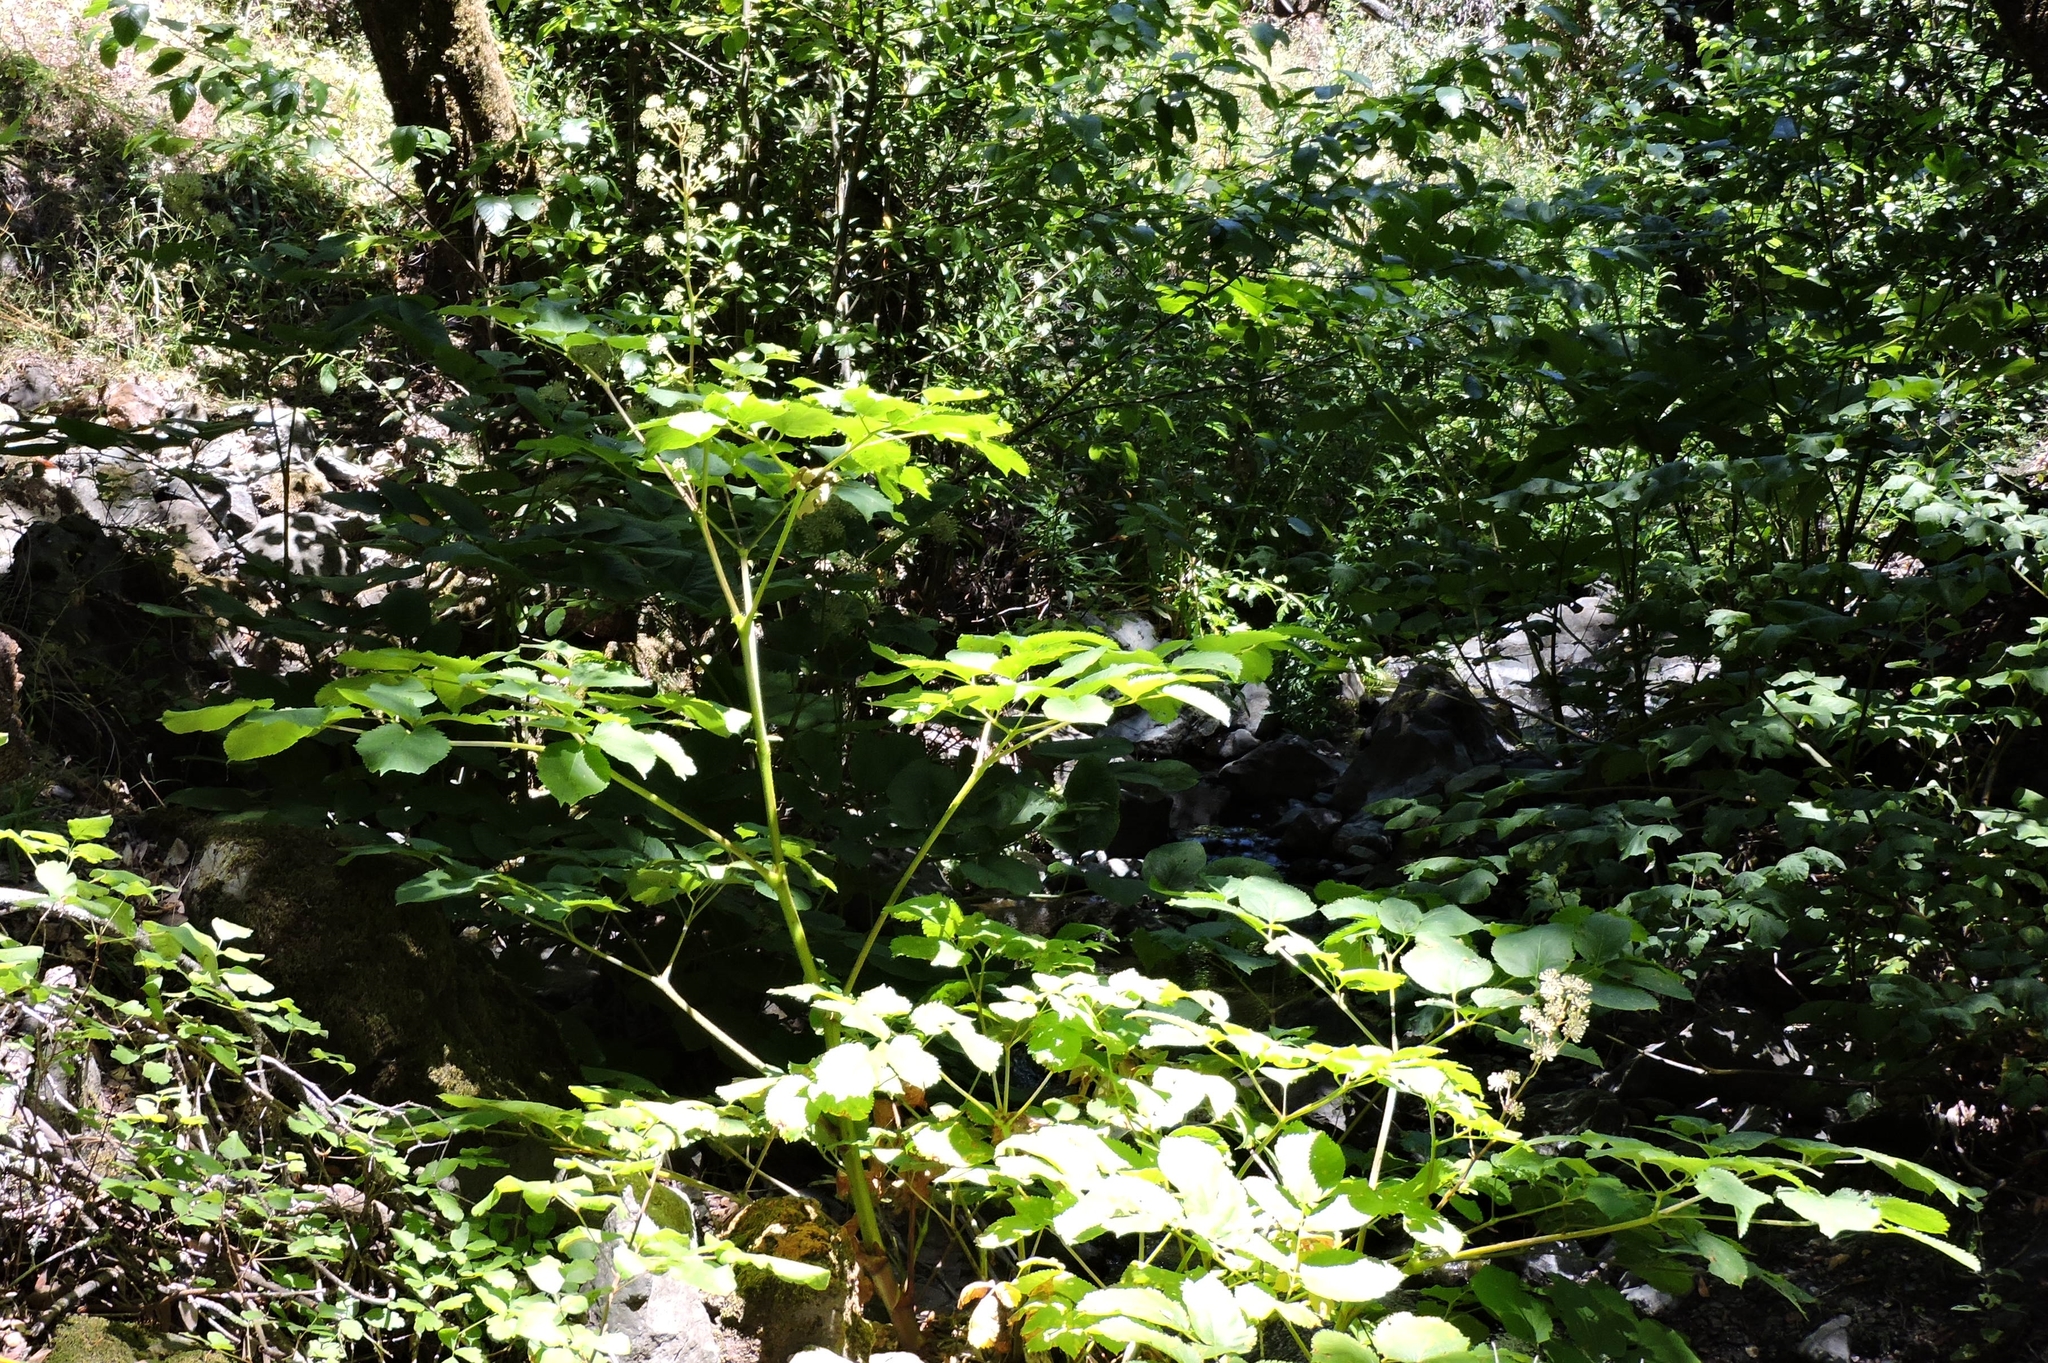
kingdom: Plantae
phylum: Tracheophyta
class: Magnoliopsida
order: Apiales
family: Araliaceae
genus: Aralia
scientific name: Aralia californica
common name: California-ginseng
